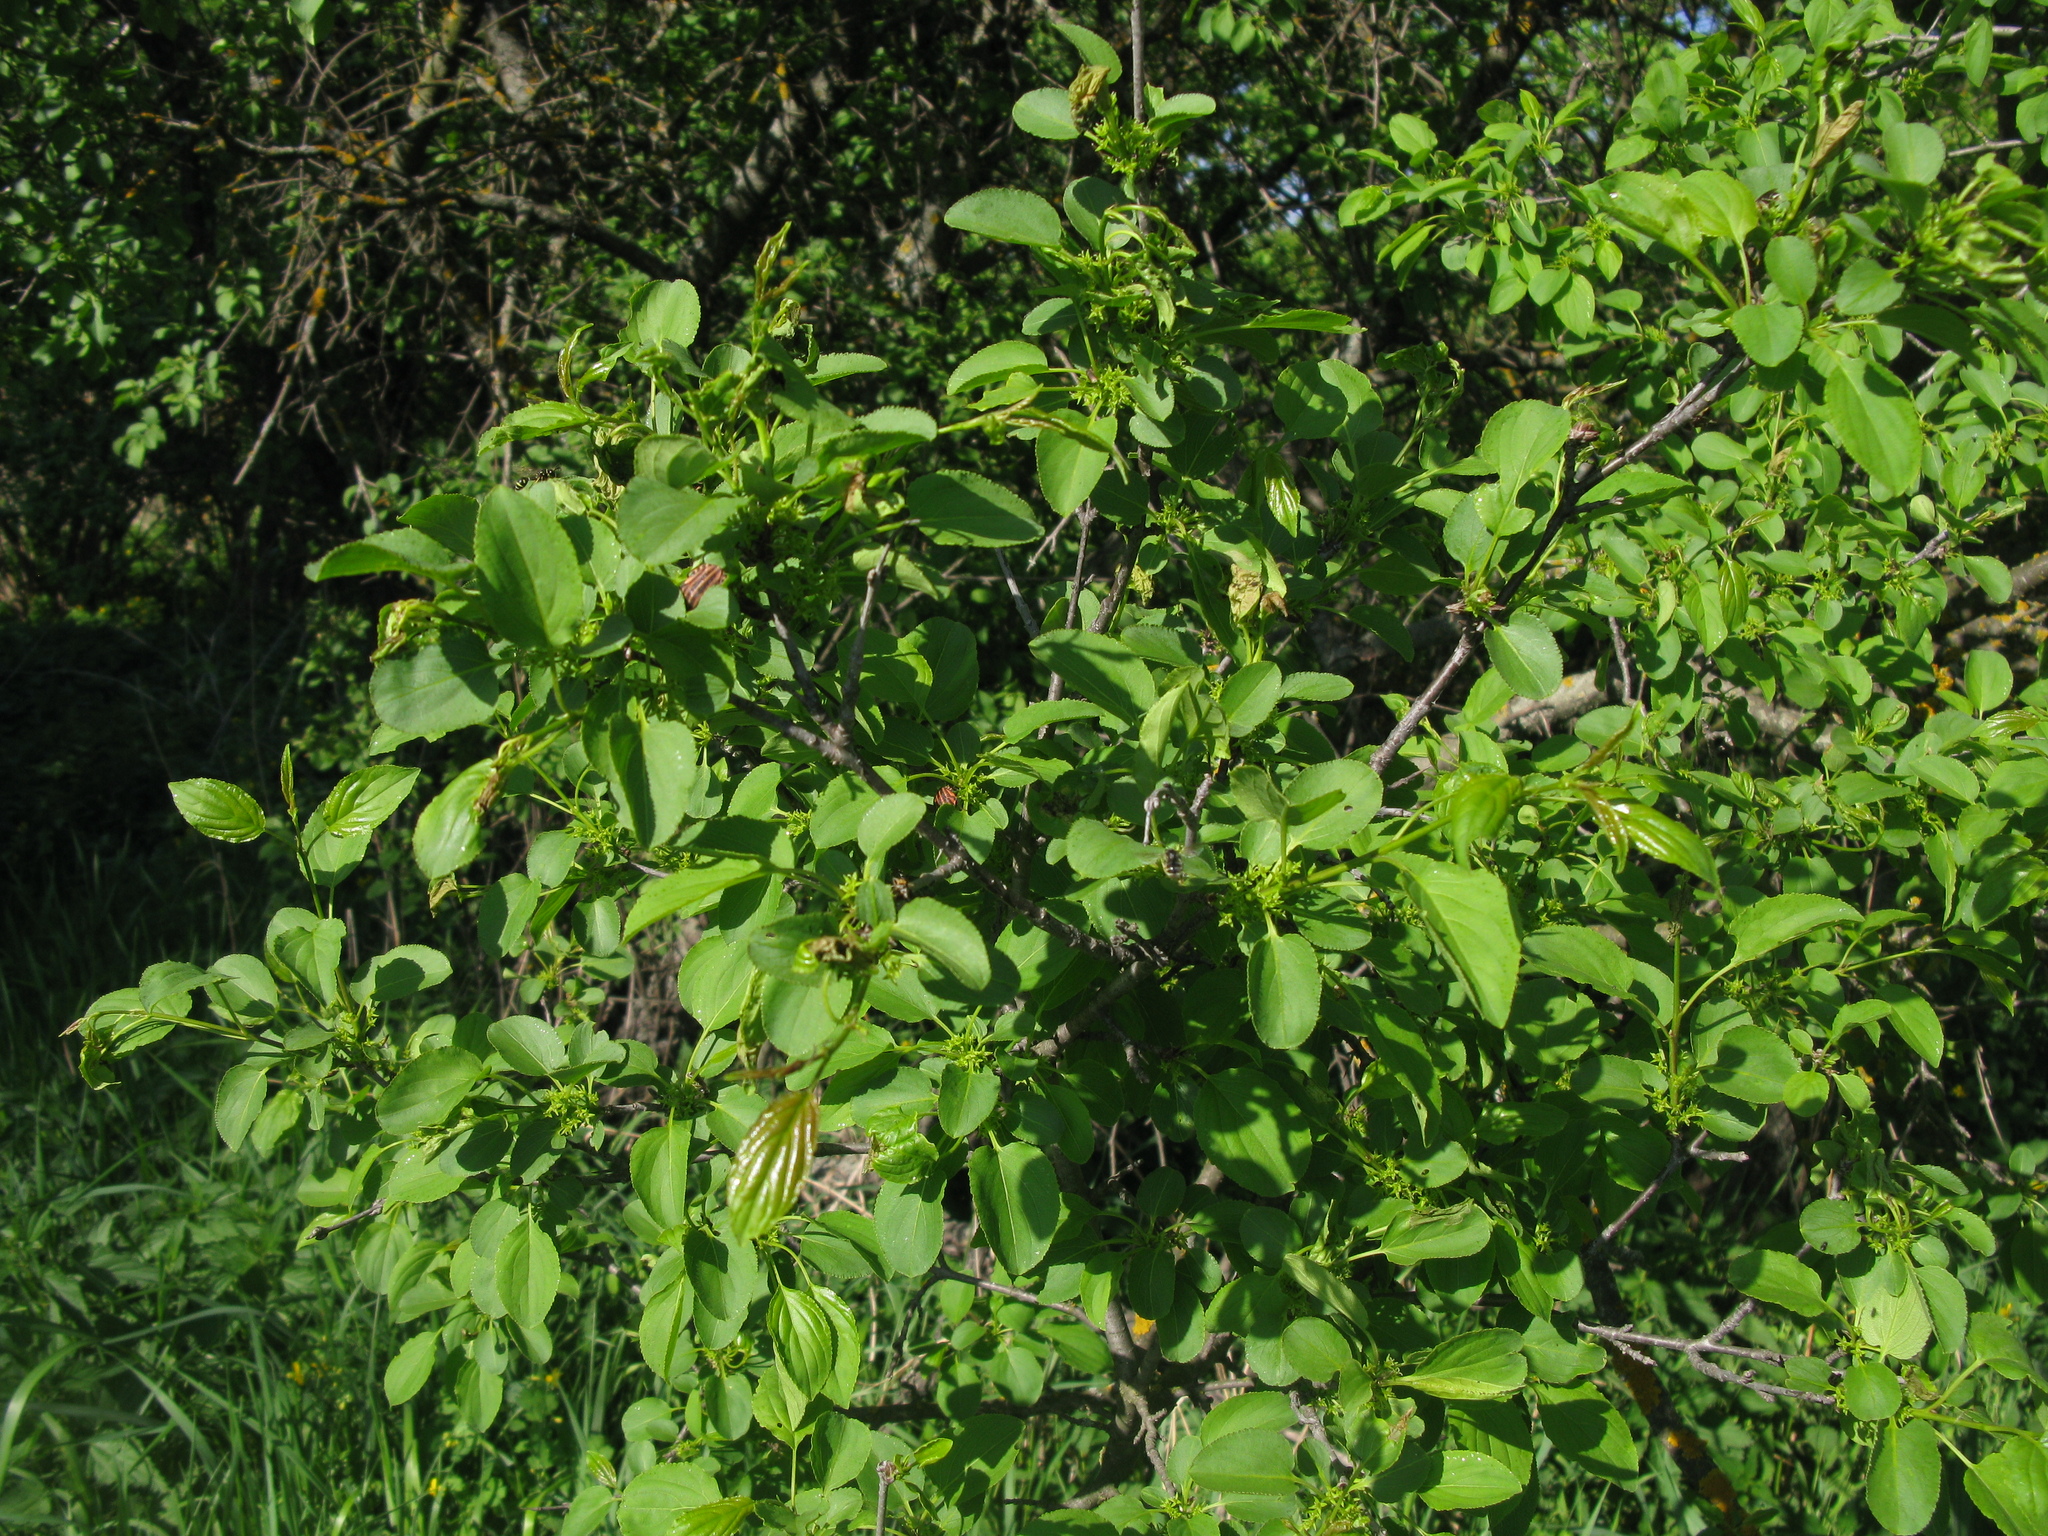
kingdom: Plantae
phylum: Tracheophyta
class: Magnoliopsida
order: Rosales
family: Rhamnaceae
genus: Rhamnus
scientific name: Rhamnus cathartica
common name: Common buckthorn
